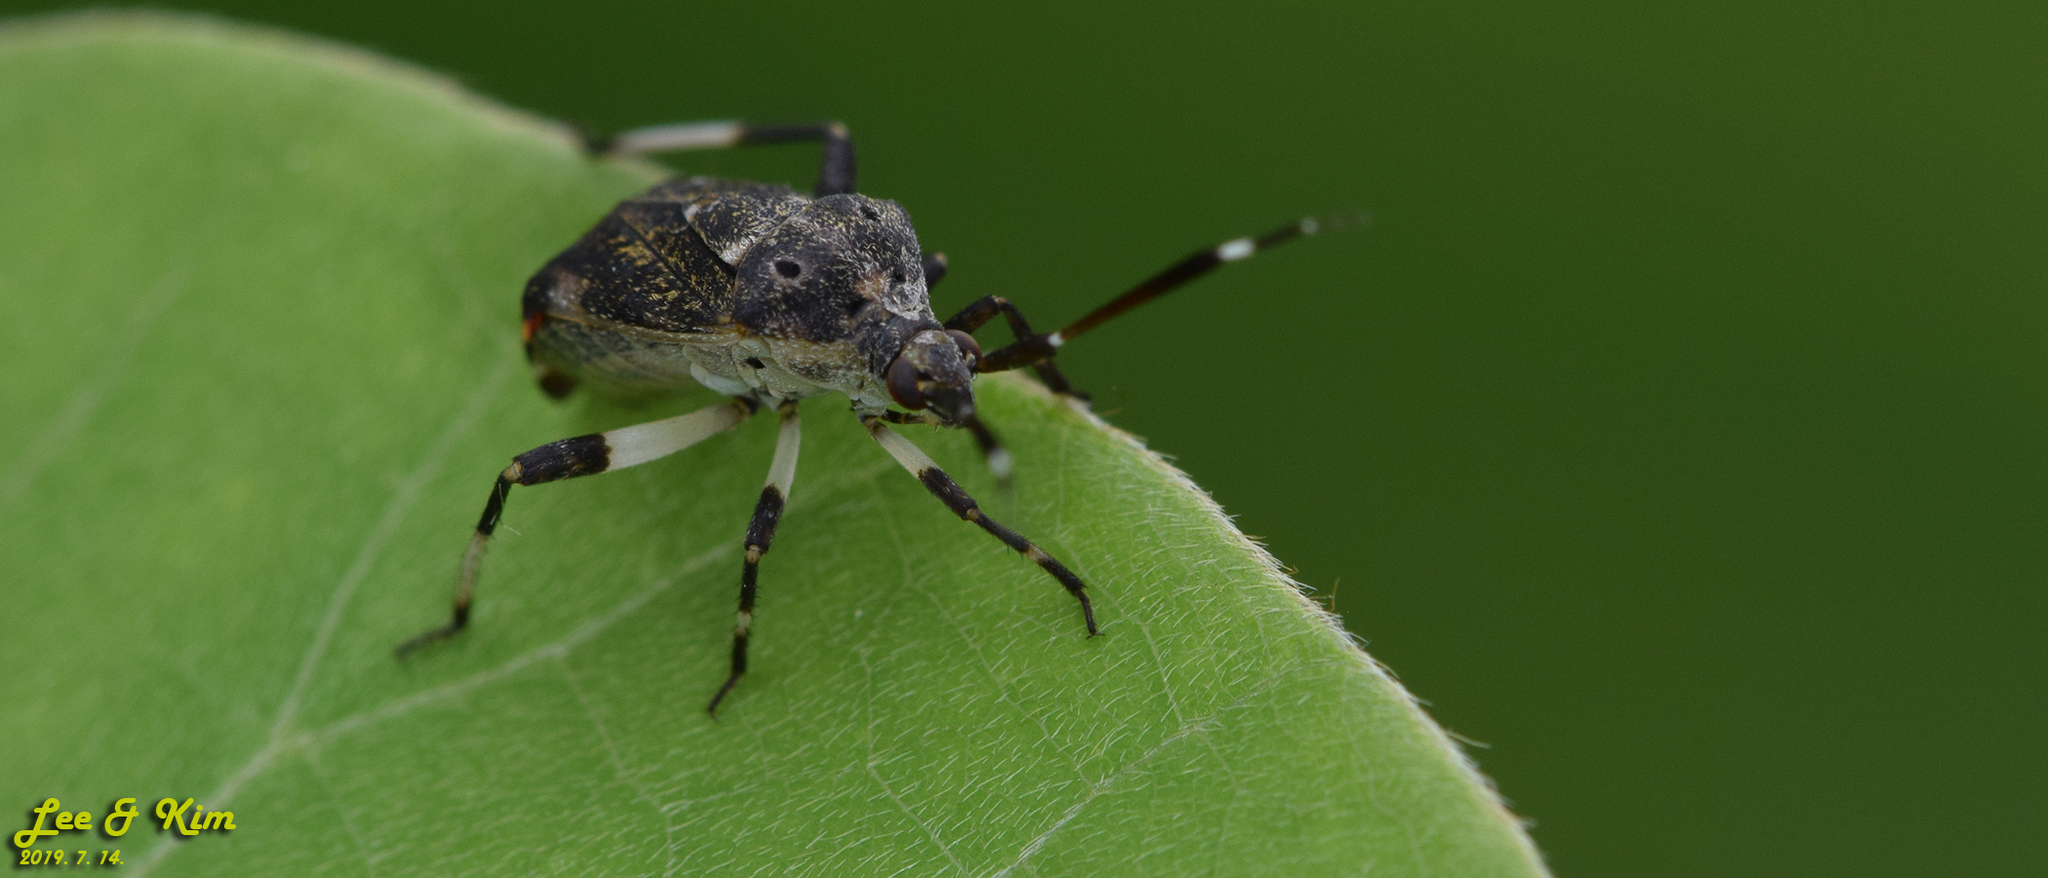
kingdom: Animalia
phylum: Arthropoda
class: Insecta
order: Hemiptera
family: Miridae
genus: Eurystylus
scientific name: Eurystylus coelestialium
